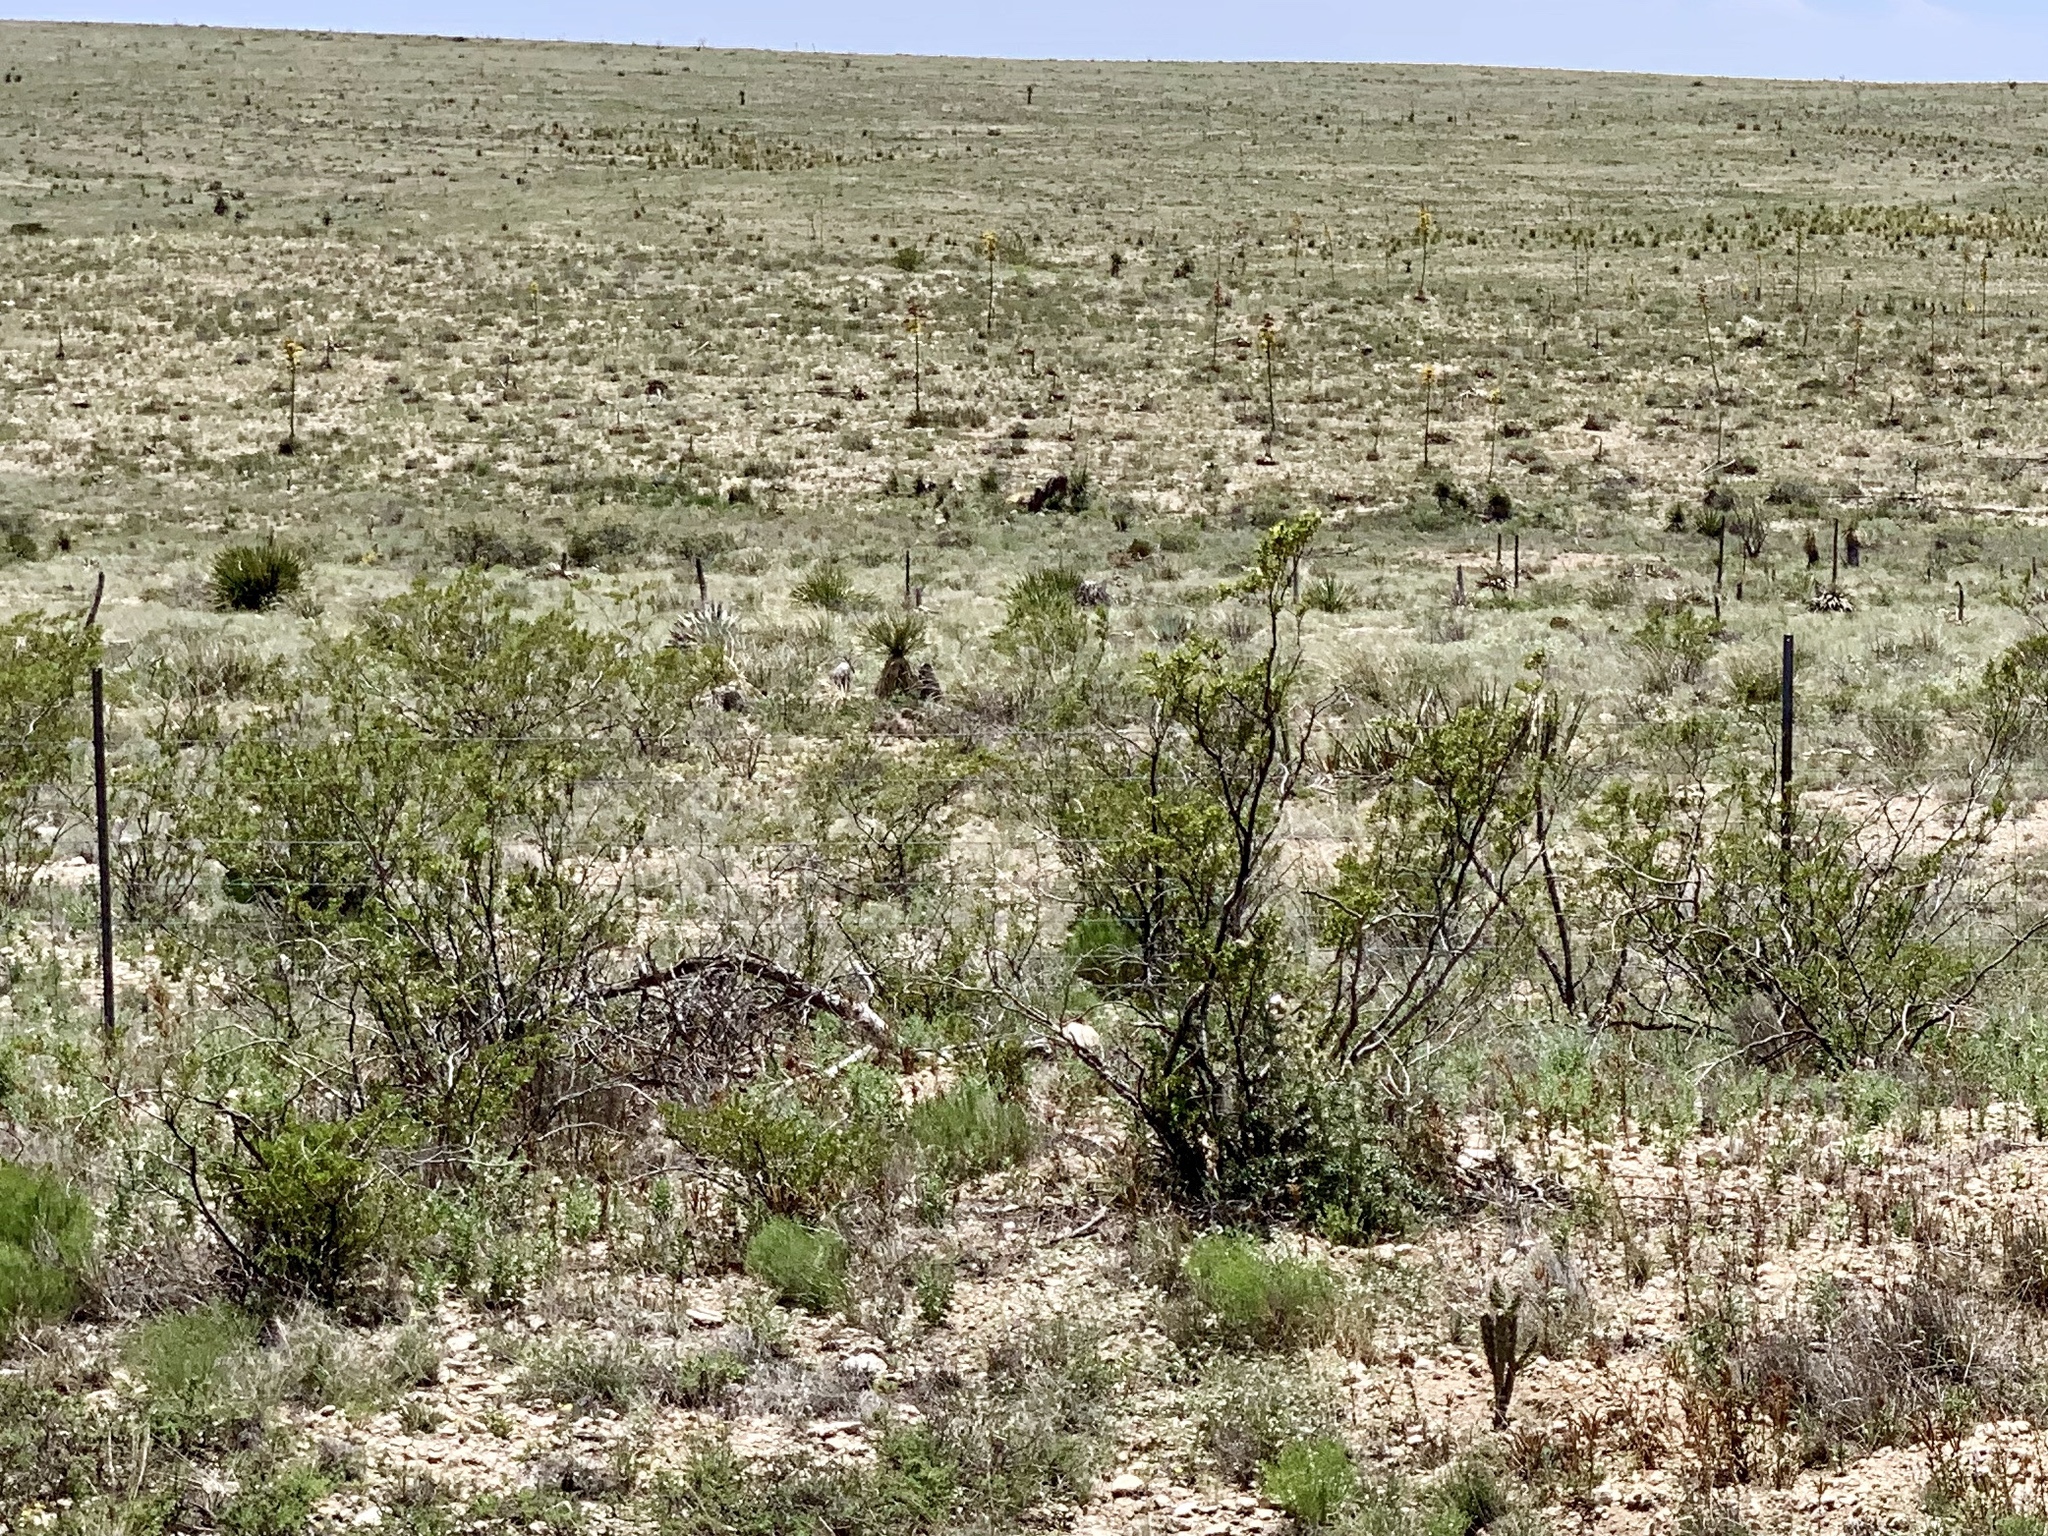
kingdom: Plantae
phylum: Tracheophyta
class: Magnoliopsida
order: Zygophyllales
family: Zygophyllaceae
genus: Larrea
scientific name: Larrea tridentata
